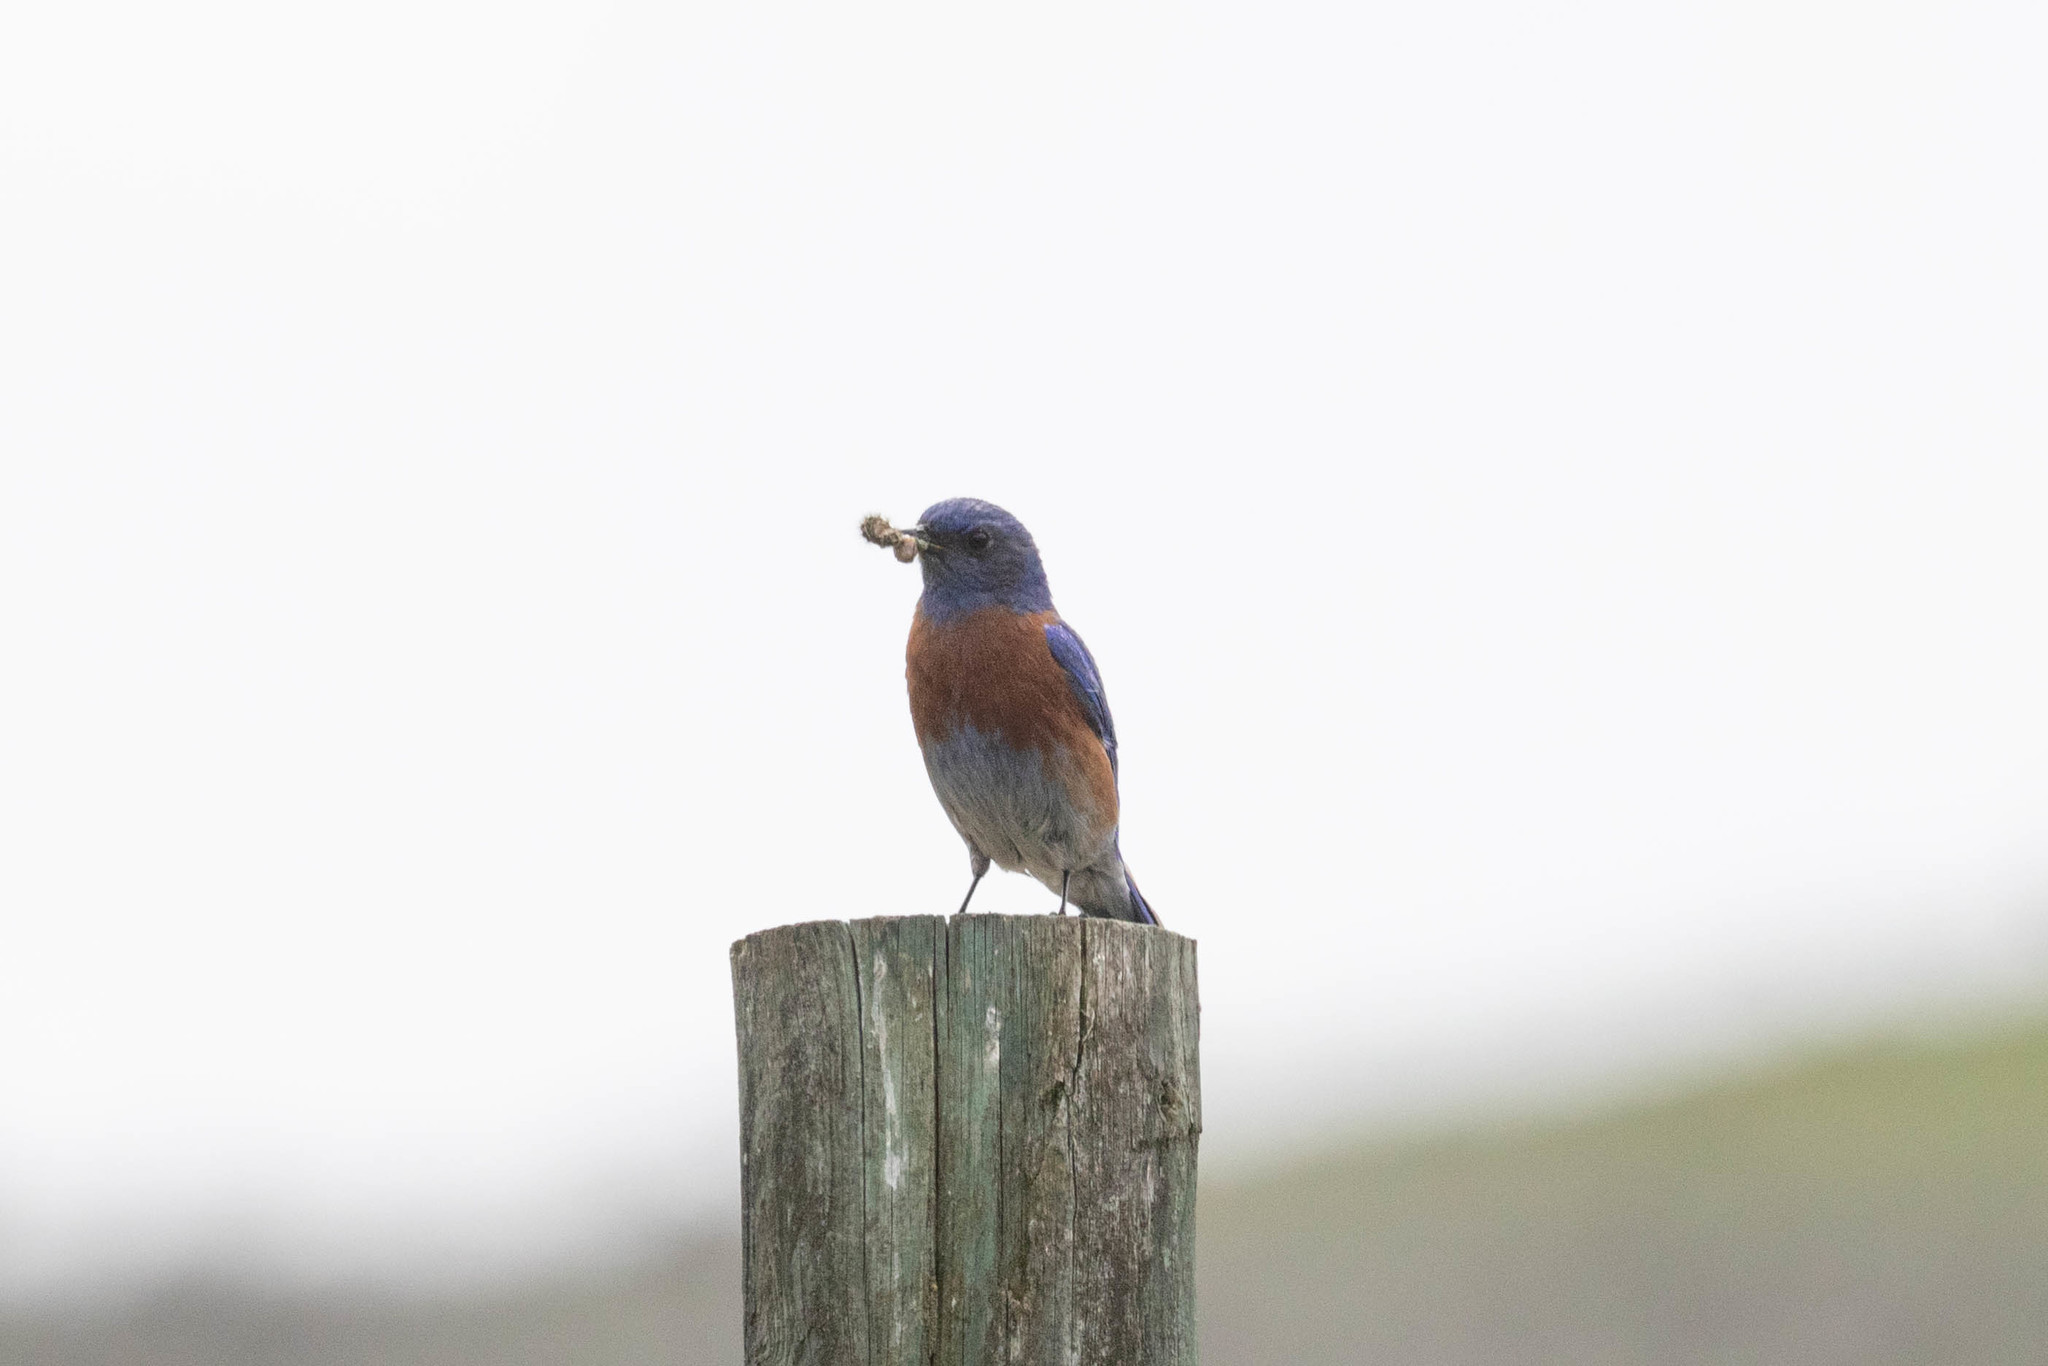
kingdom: Animalia
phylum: Chordata
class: Aves
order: Passeriformes
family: Turdidae
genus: Sialia
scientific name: Sialia mexicana
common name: Western bluebird
